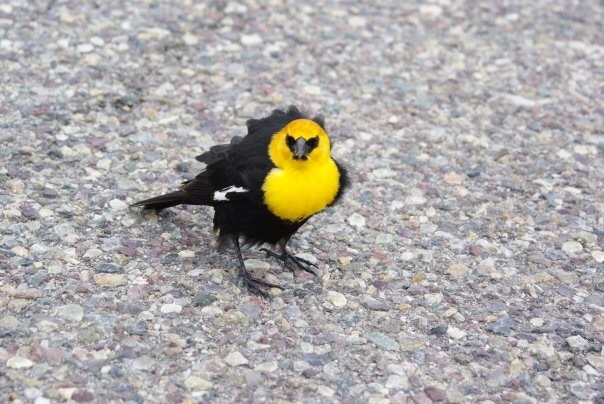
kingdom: Animalia
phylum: Chordata
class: Aves
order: Passeriformes
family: Icteridae
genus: Xanthocephalus
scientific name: Xanthocephalus xanthocephalus
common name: Yellow-headed blackbird
